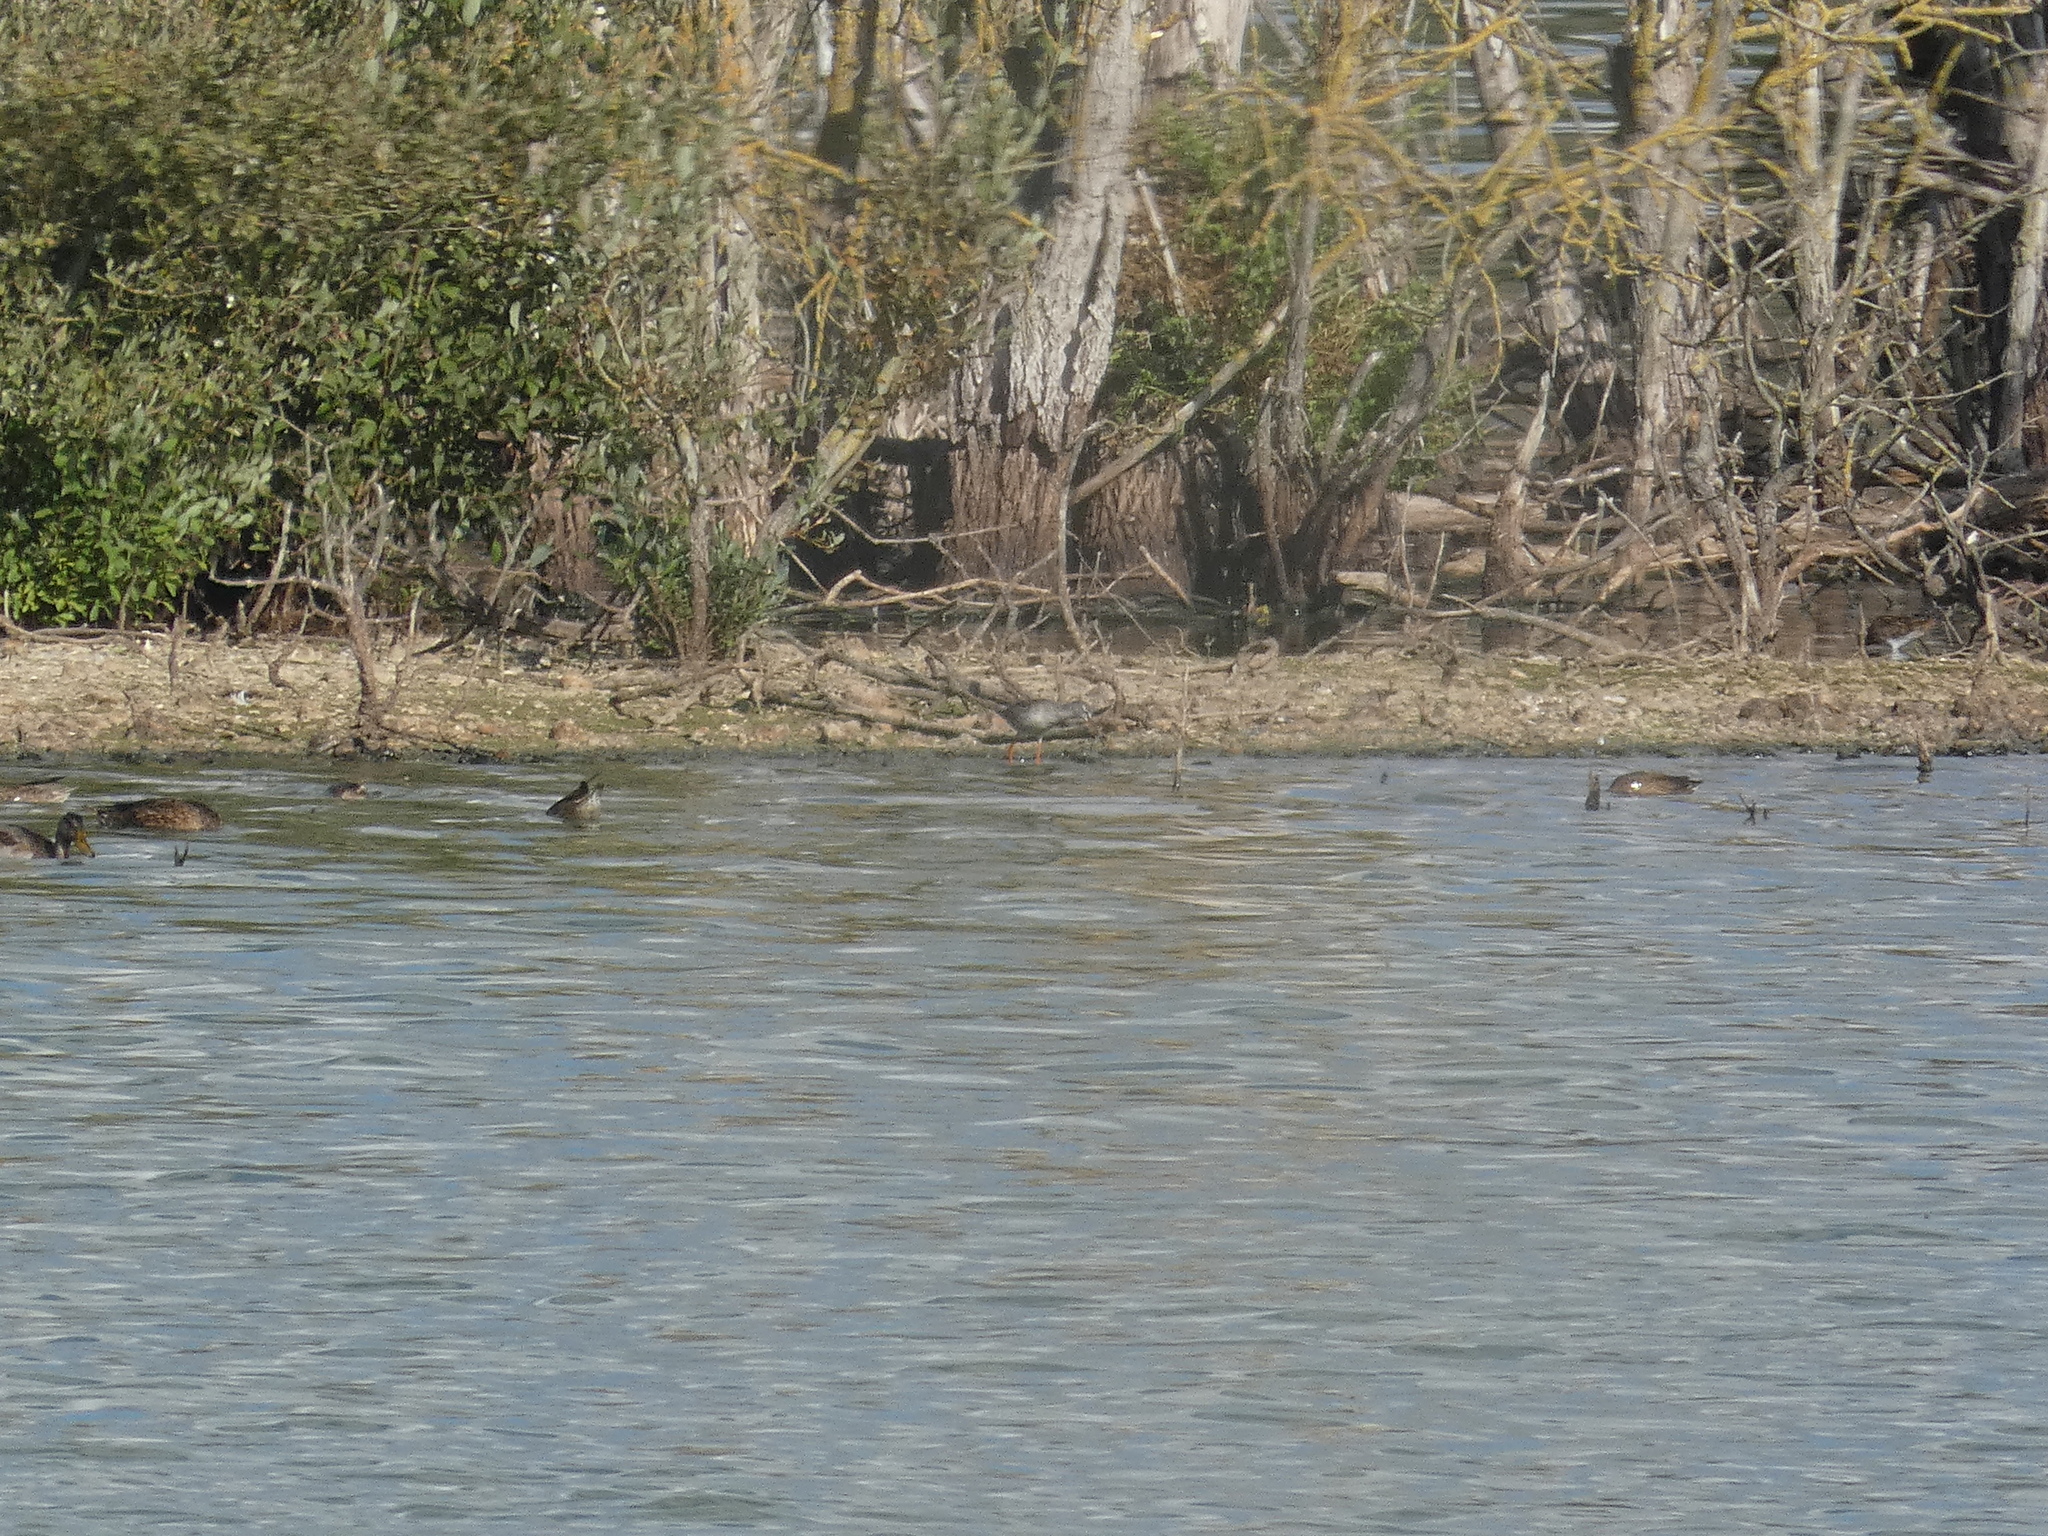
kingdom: Animalia
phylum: Chordata
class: Aves
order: Charadriiformes
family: Scolopacidae
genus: Tringa
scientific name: Tringa erythropus
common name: Spotted redshank
